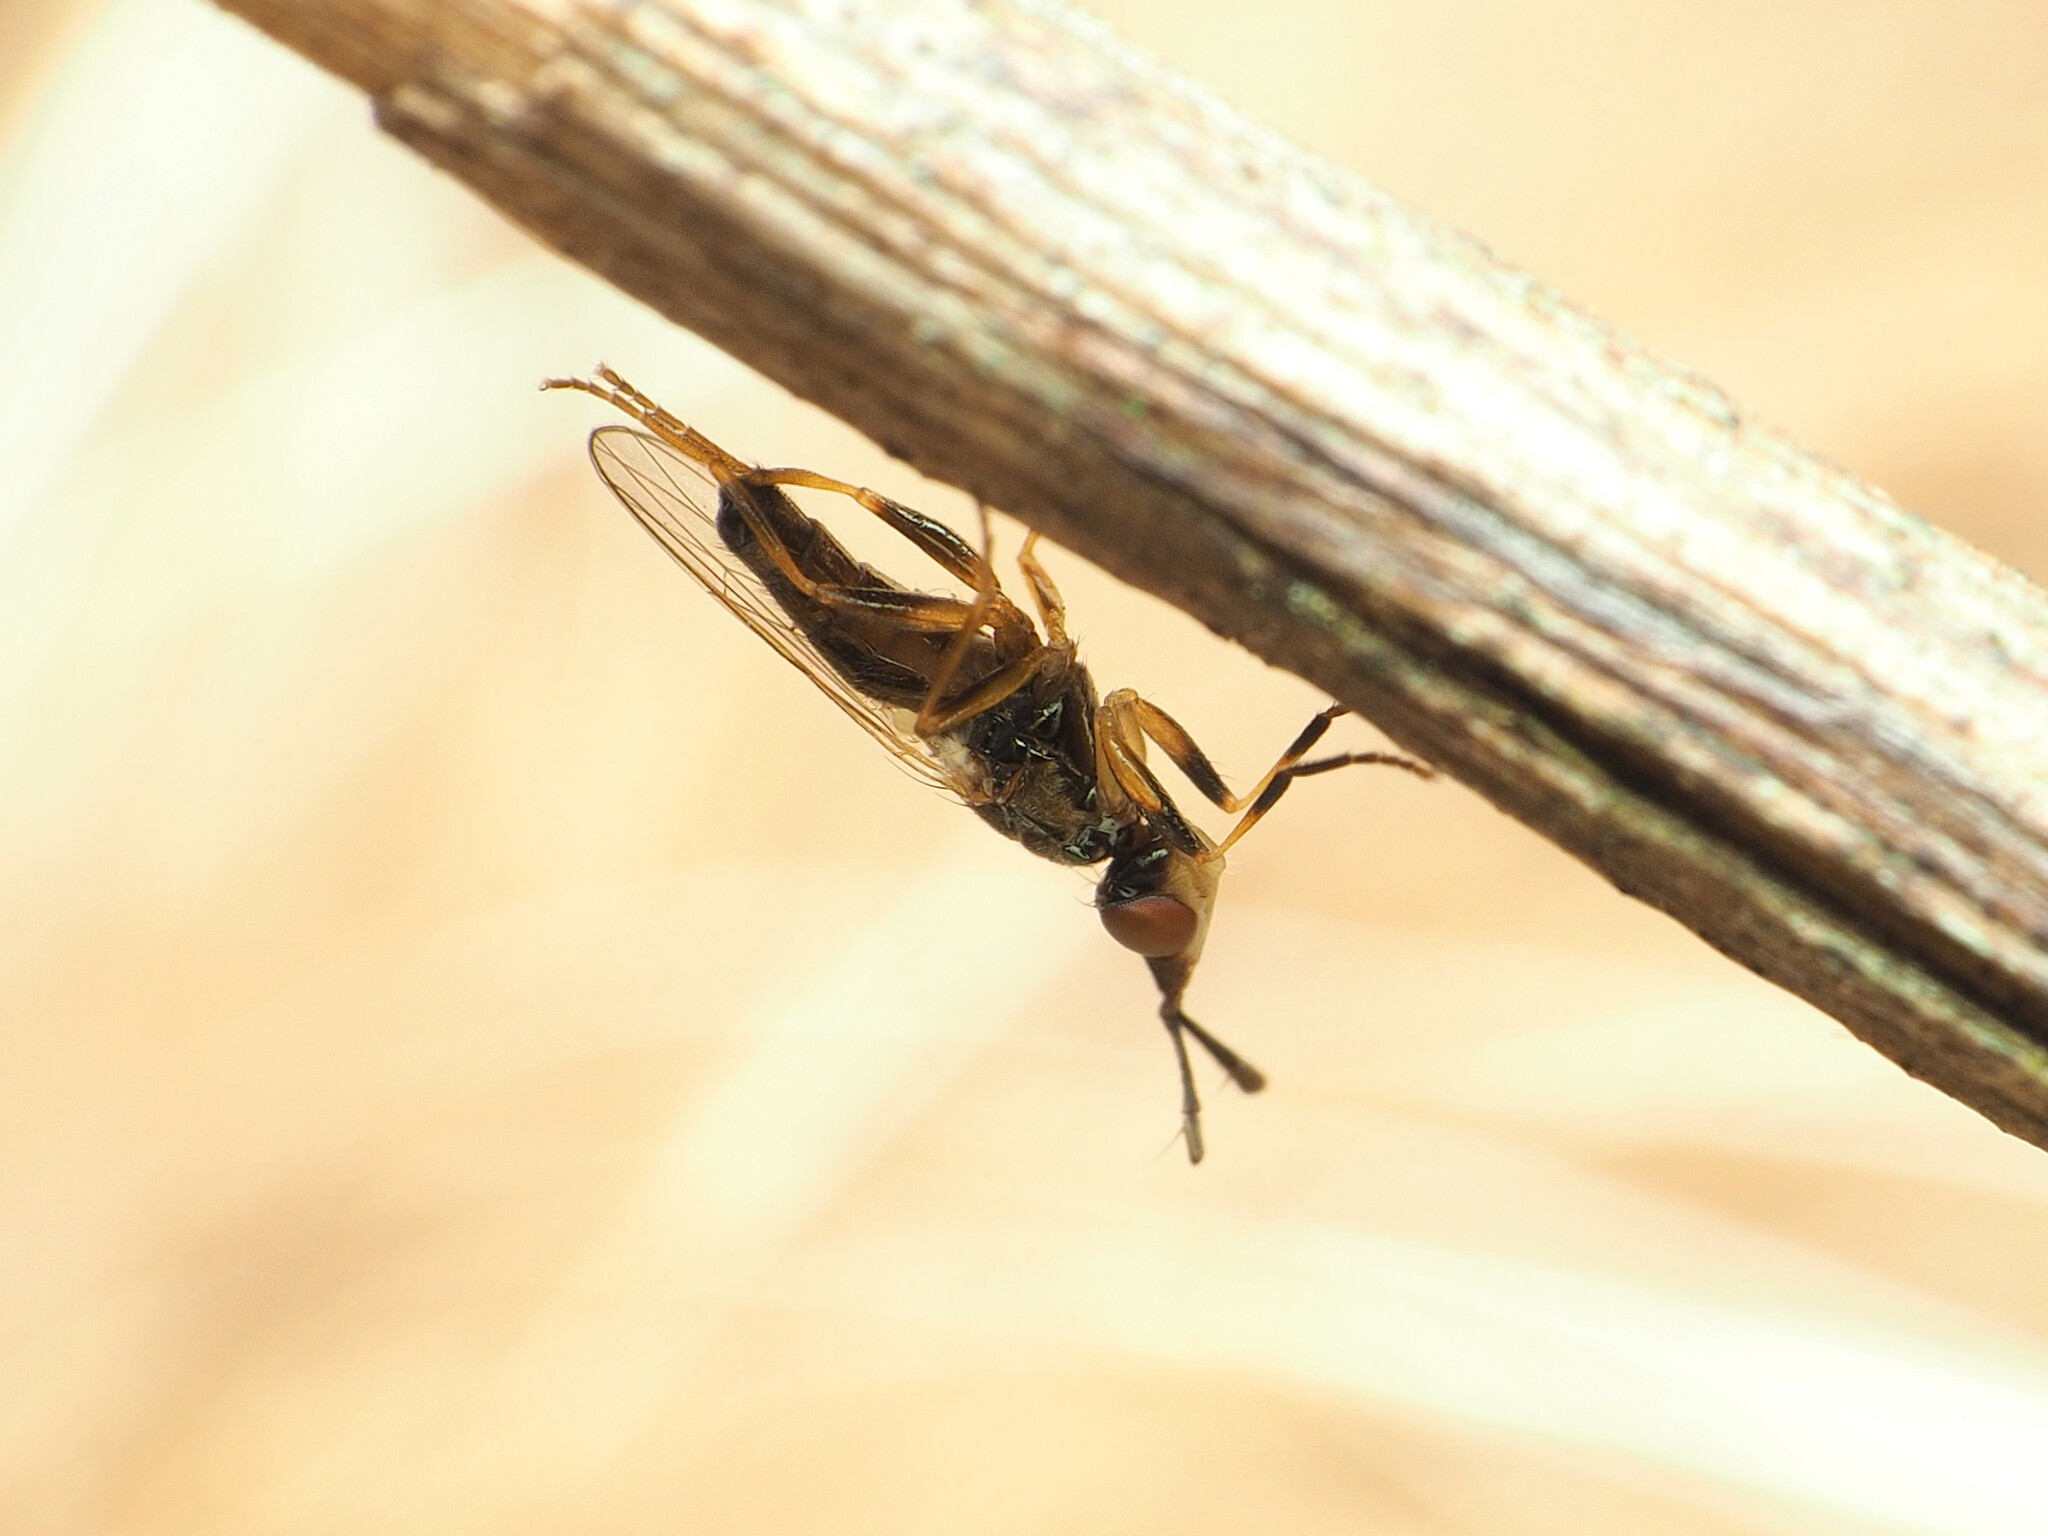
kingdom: Animalia
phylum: Arthropoda
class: Insecta
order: Diptera
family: Piophilidae
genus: Prochyliza
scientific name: Prochyliza xanthostoma
